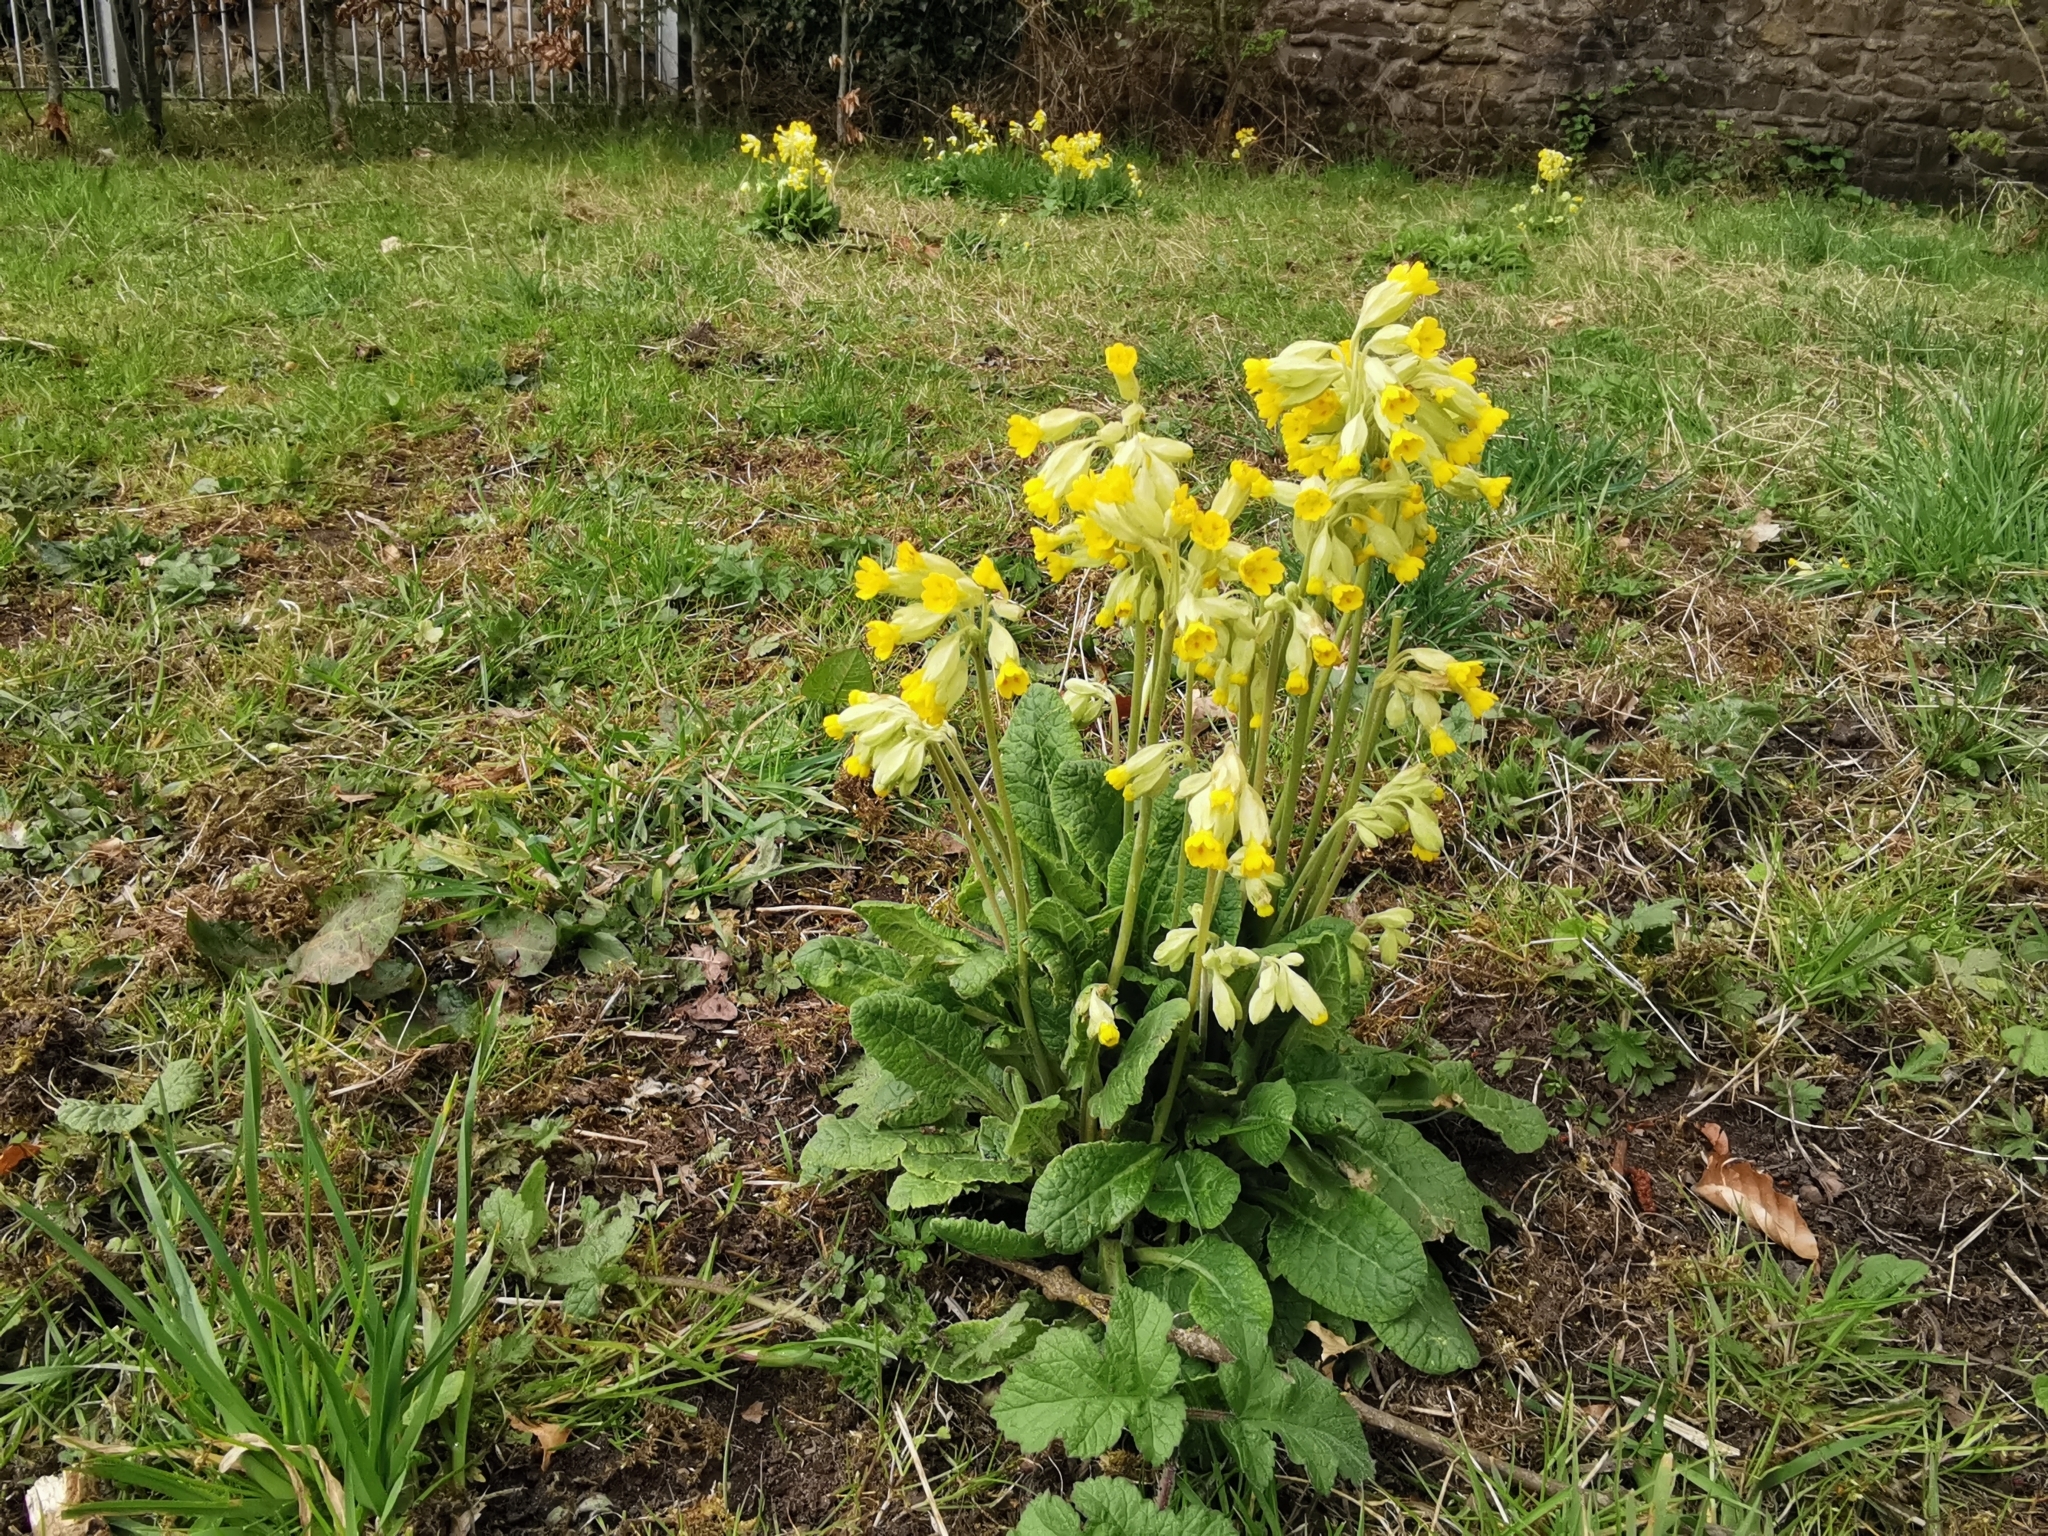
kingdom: Plantae
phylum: Tracheophyta
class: Magnoliopsida
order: Ericales
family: Primulaceae
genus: Primula
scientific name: Primula veris
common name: Cowslip
